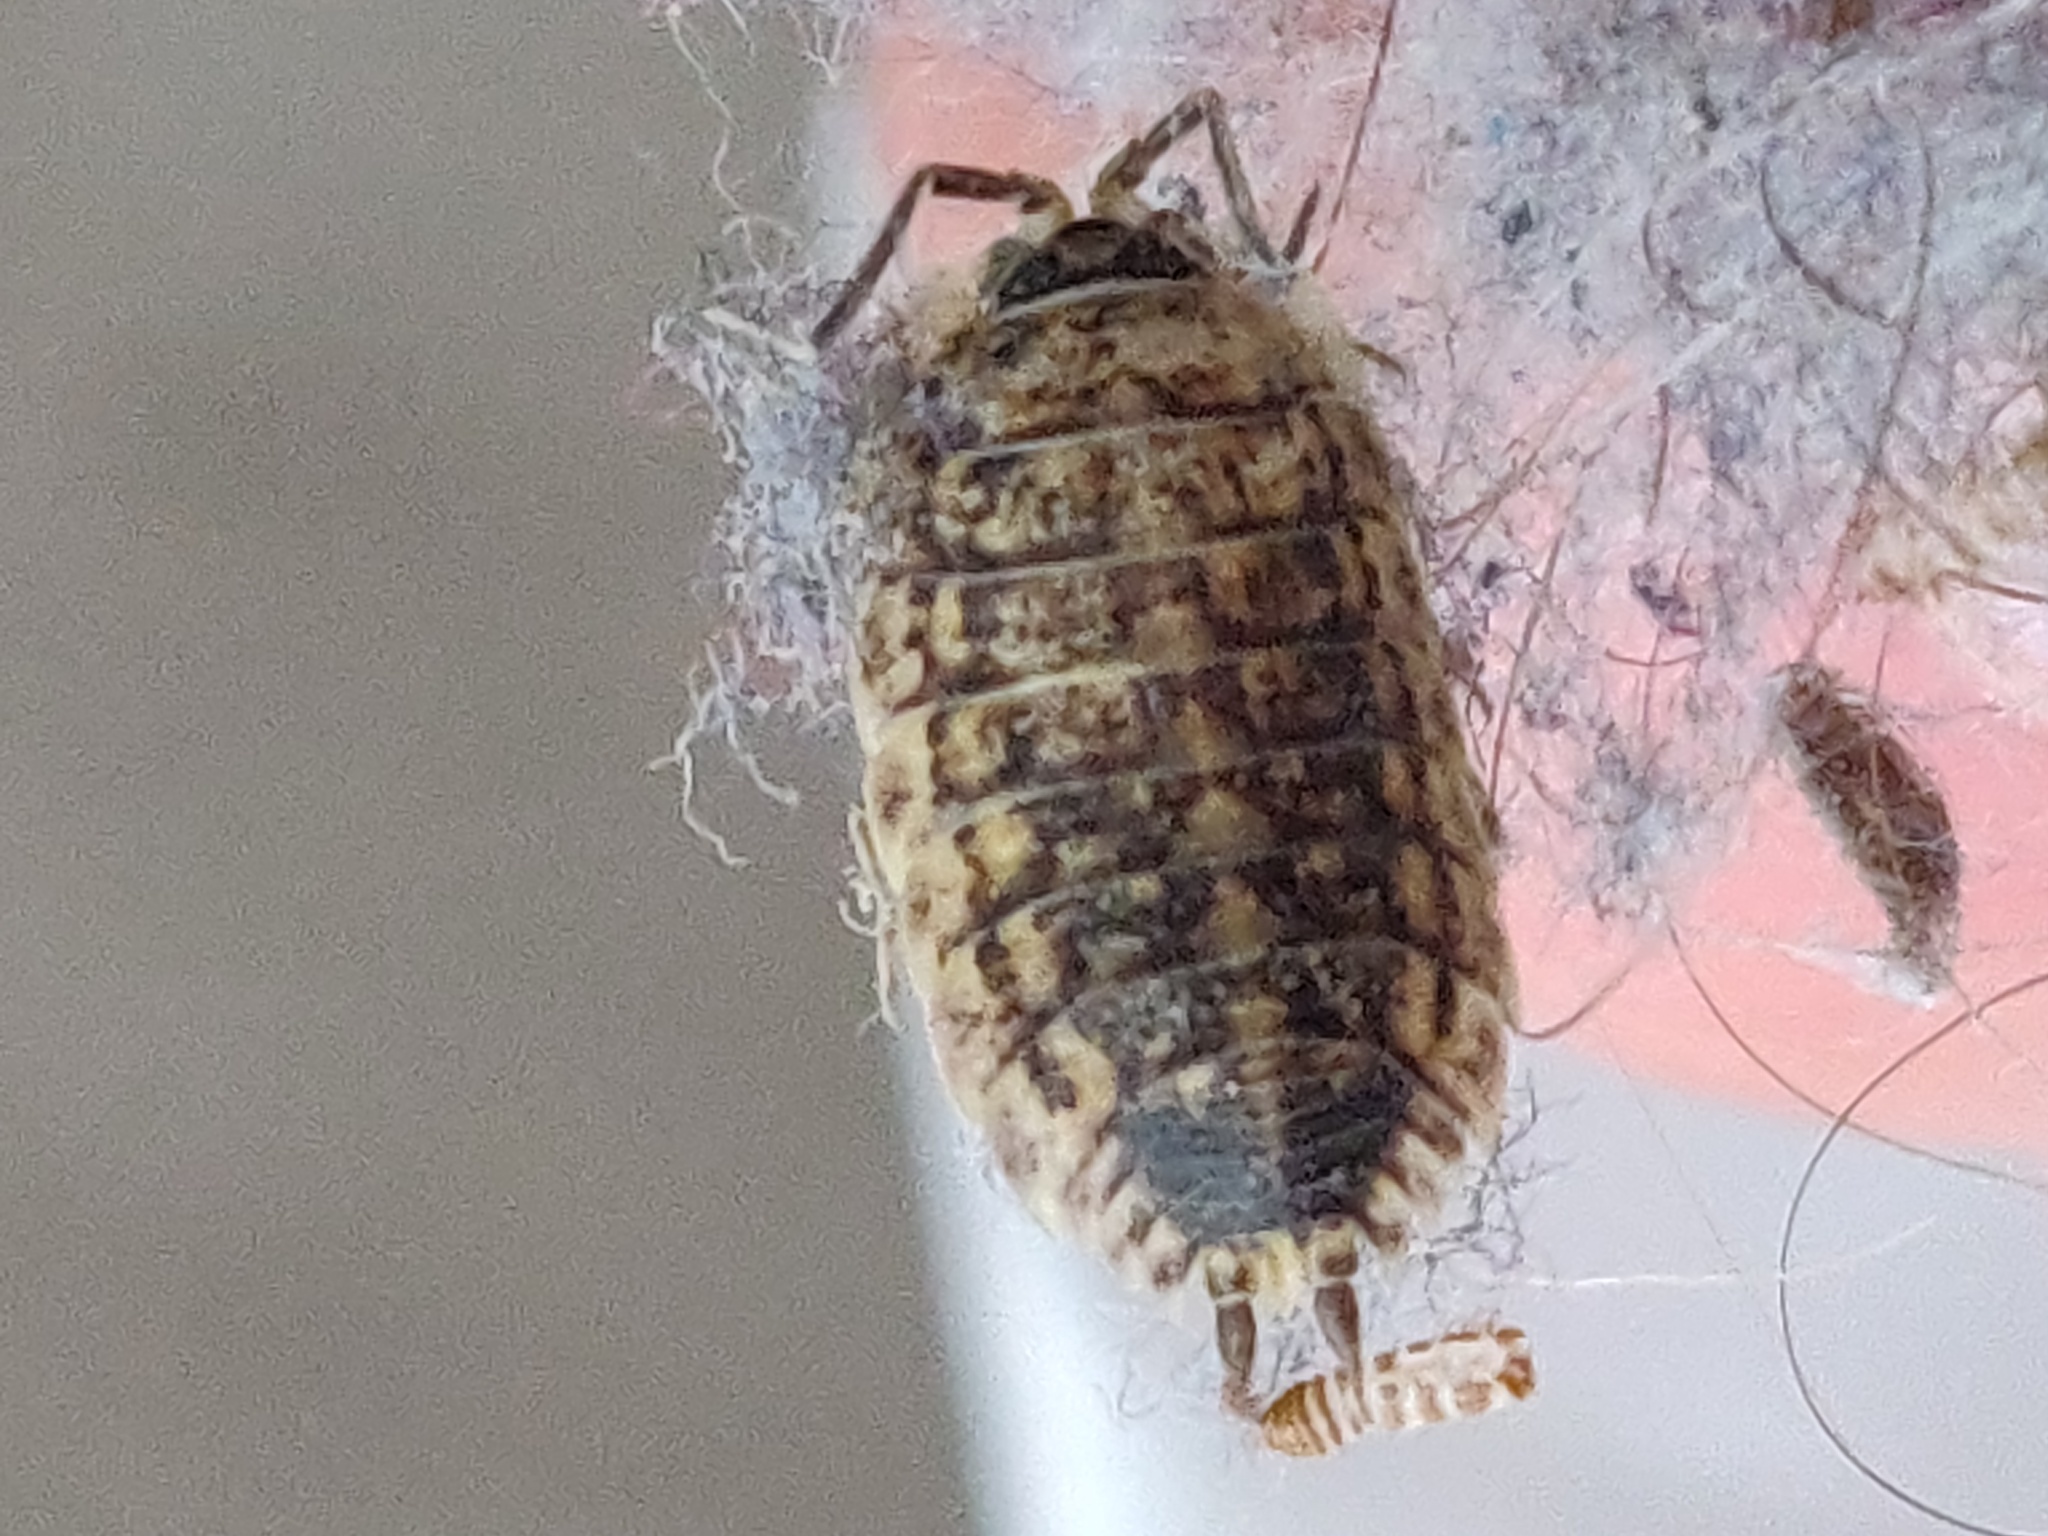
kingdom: Animalia
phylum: Arthropoda
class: Malacostraca
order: Isopoda
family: Porcellionidae
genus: Porcellio
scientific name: Porcellio spinicornis
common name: Painted woodlouse
